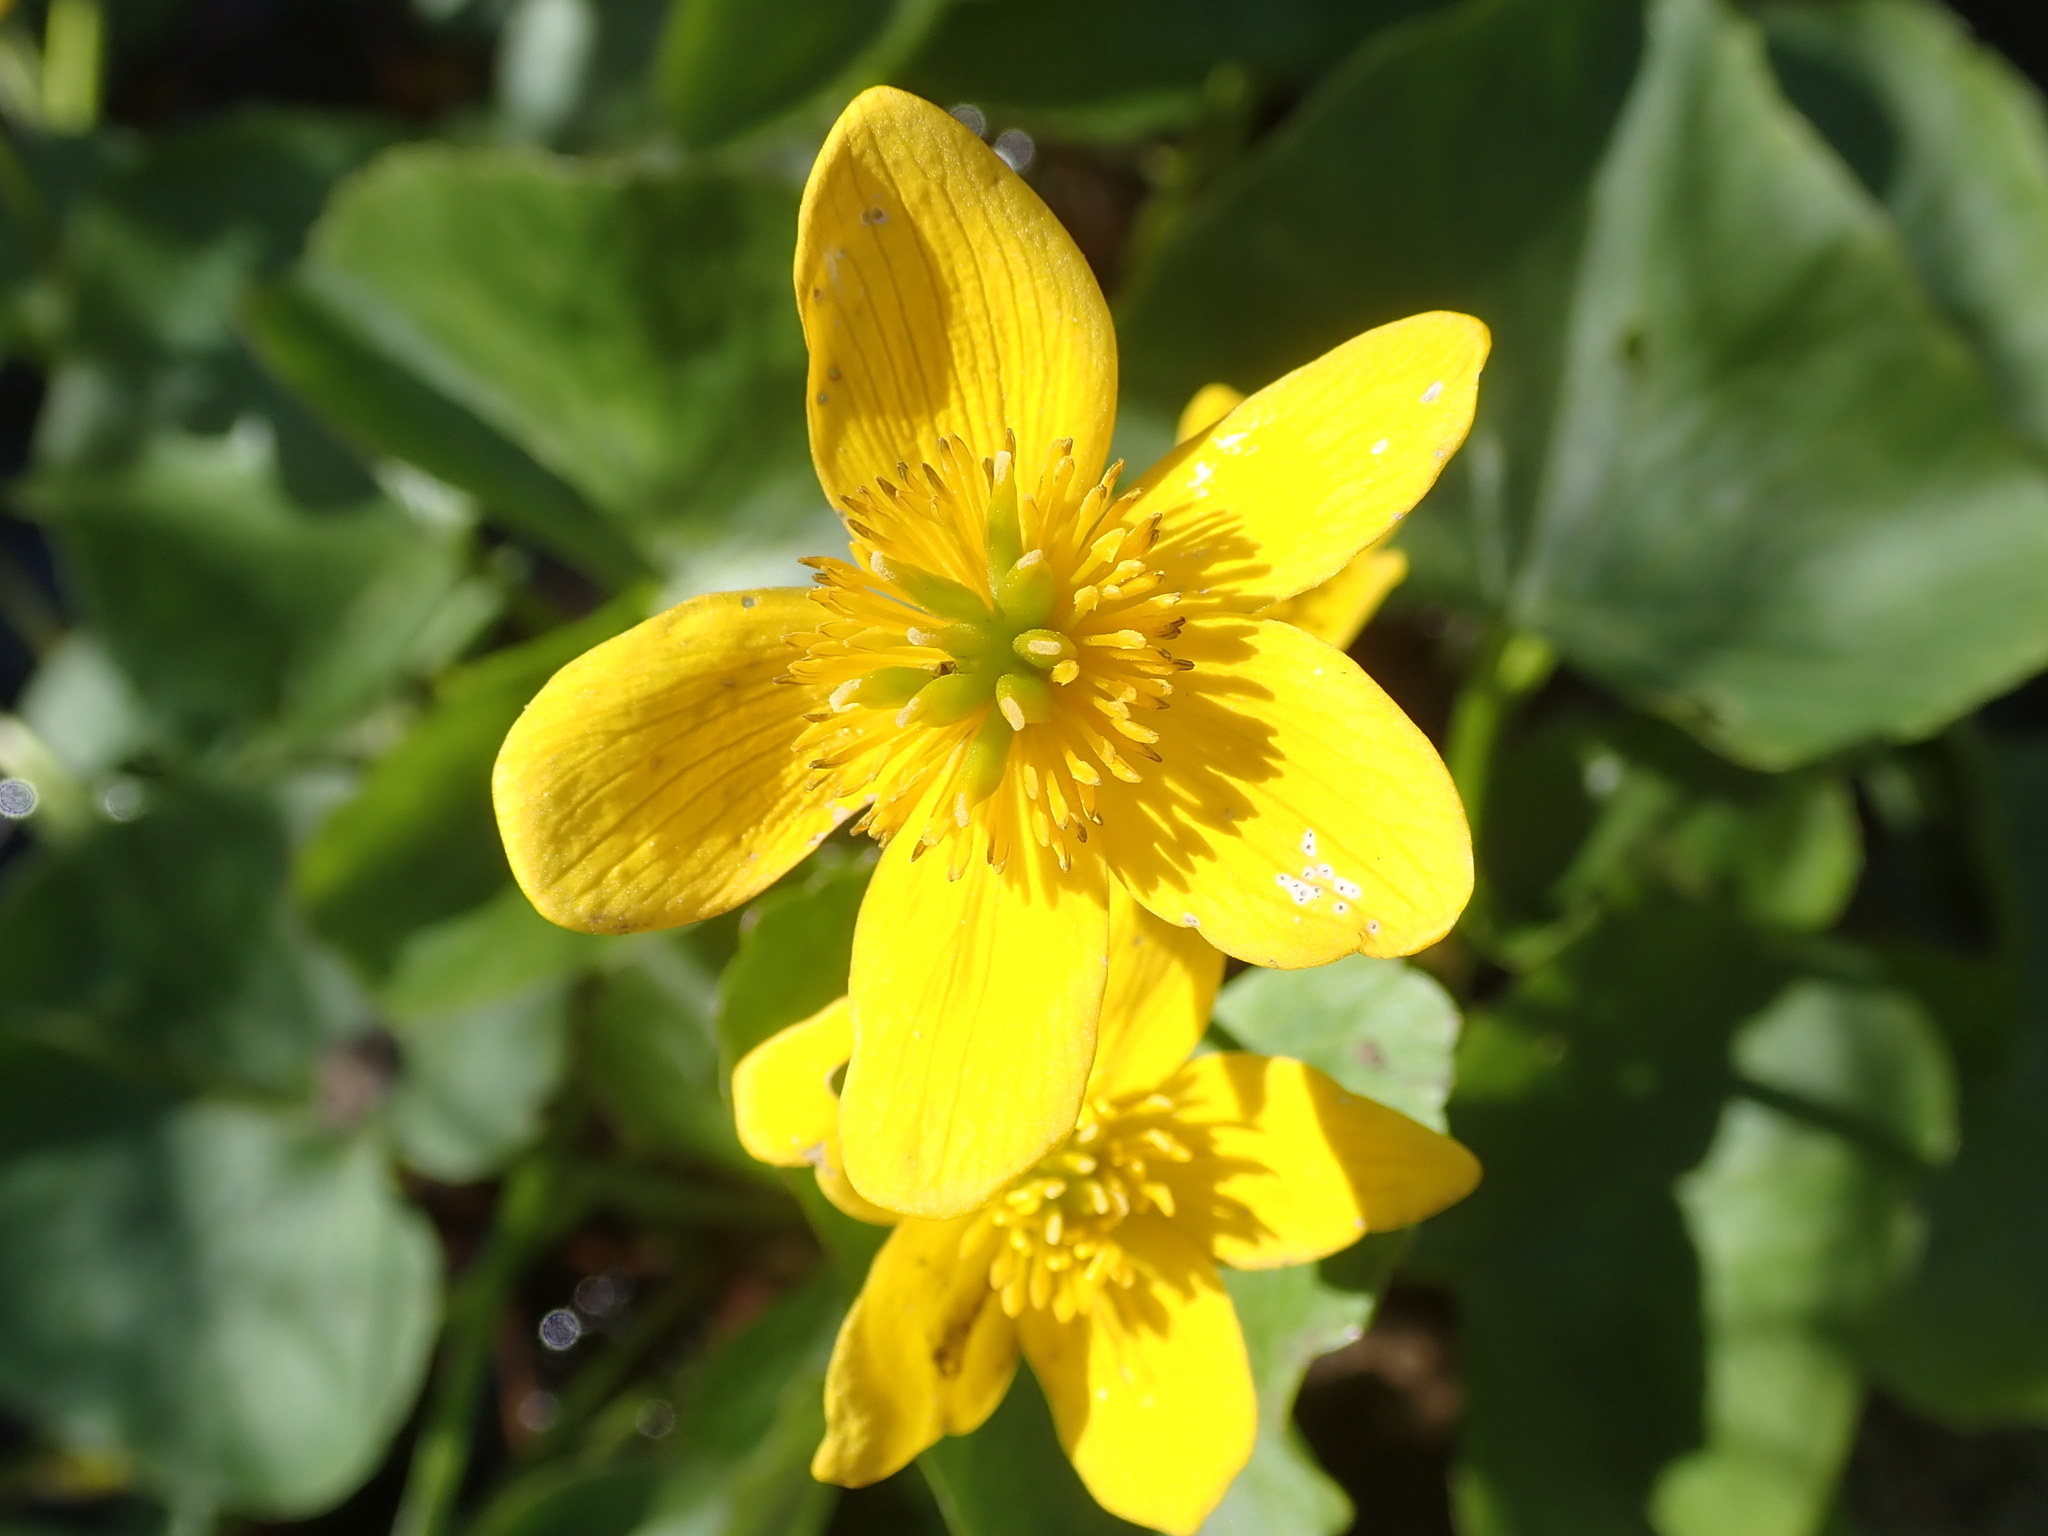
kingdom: Plantae
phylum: Tracheophyta
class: Magnoliopsida
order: Ranunculales
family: Ranunculaceae
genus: Caltha
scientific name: Caltha palustris
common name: Marsh marigold
